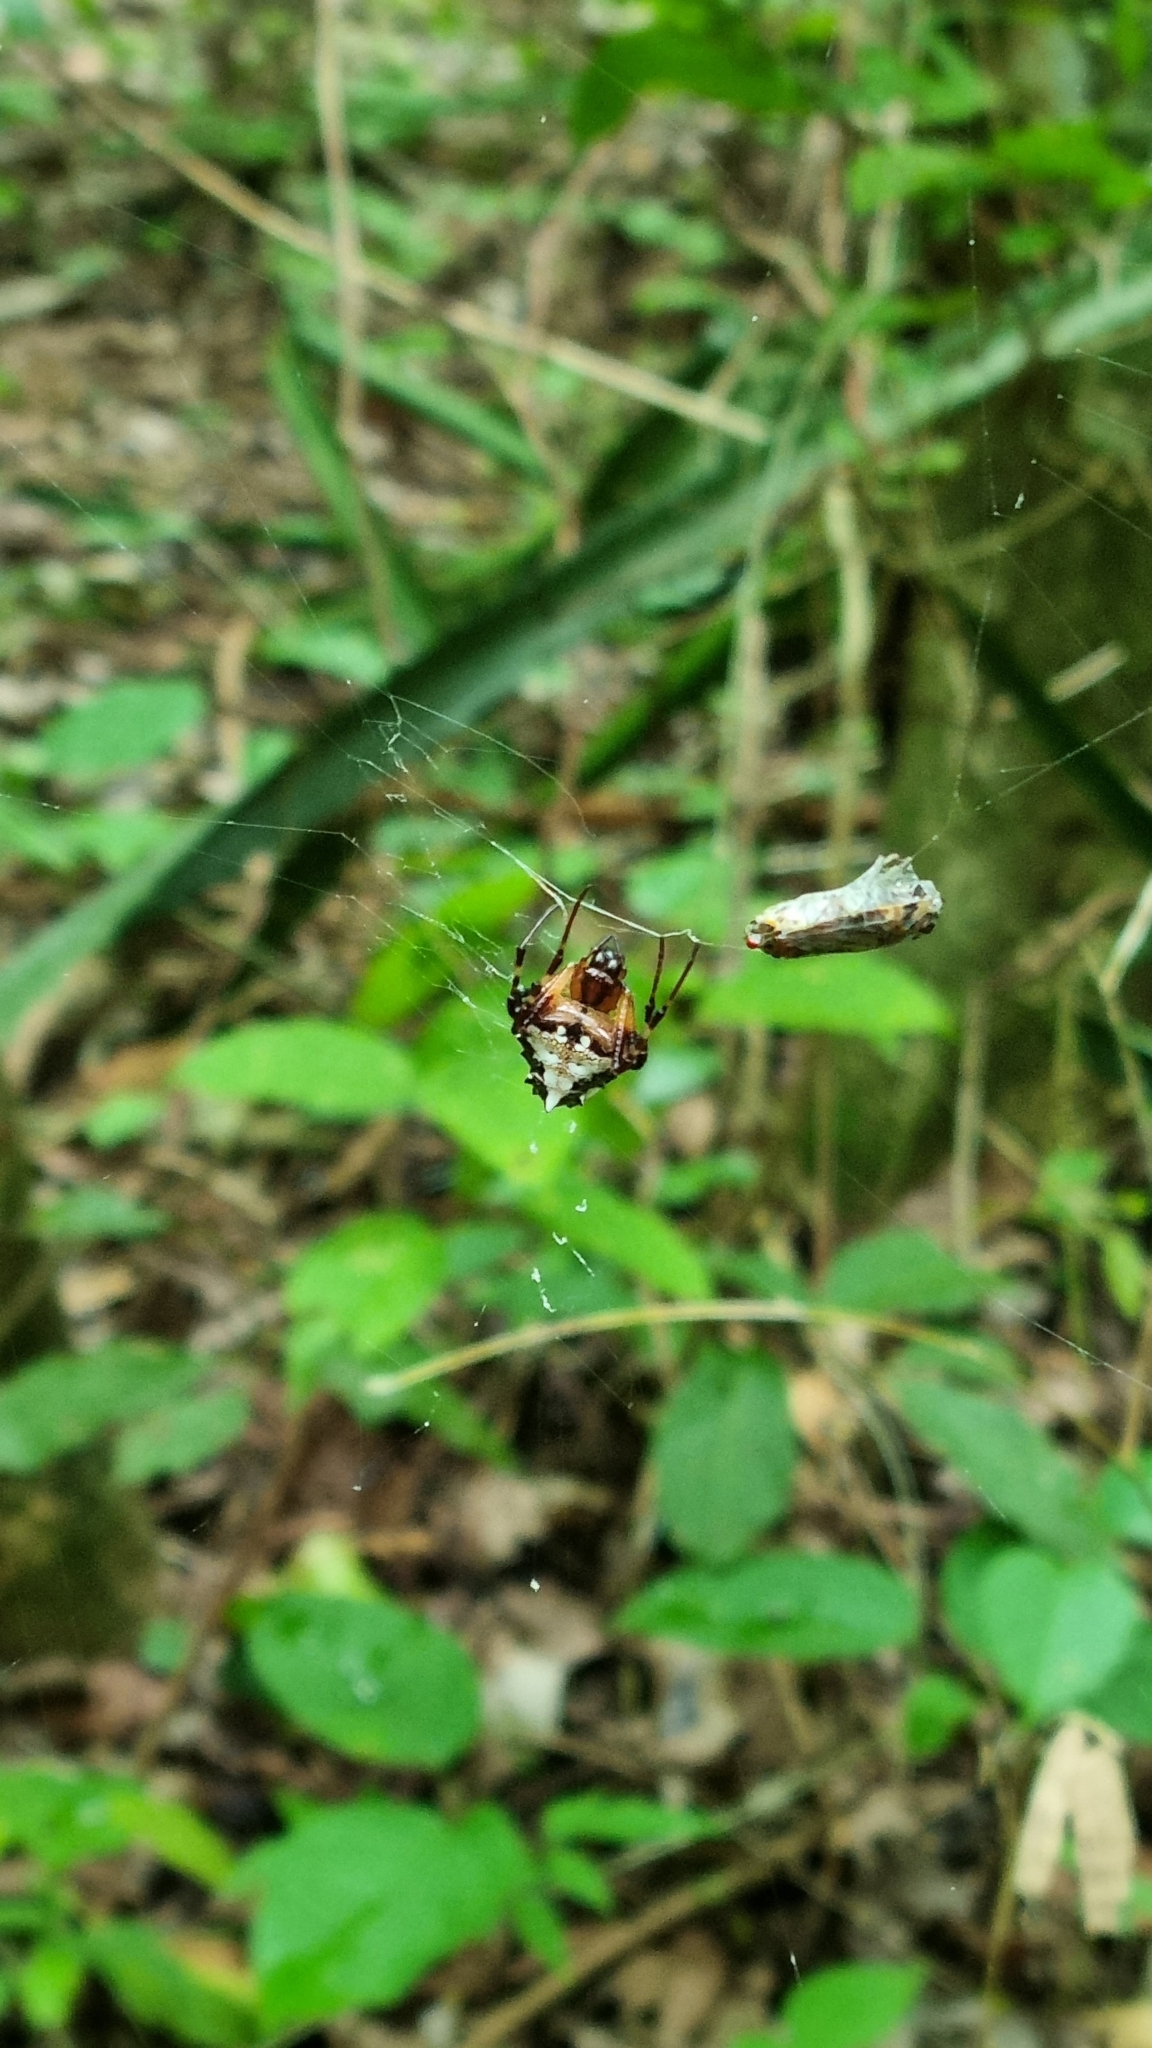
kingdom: Animalia
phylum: Arthropoda
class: Arachnida
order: Araneae
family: Araneidae
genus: Verrucosa
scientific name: Verrucosa arenata
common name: Orb weavers
